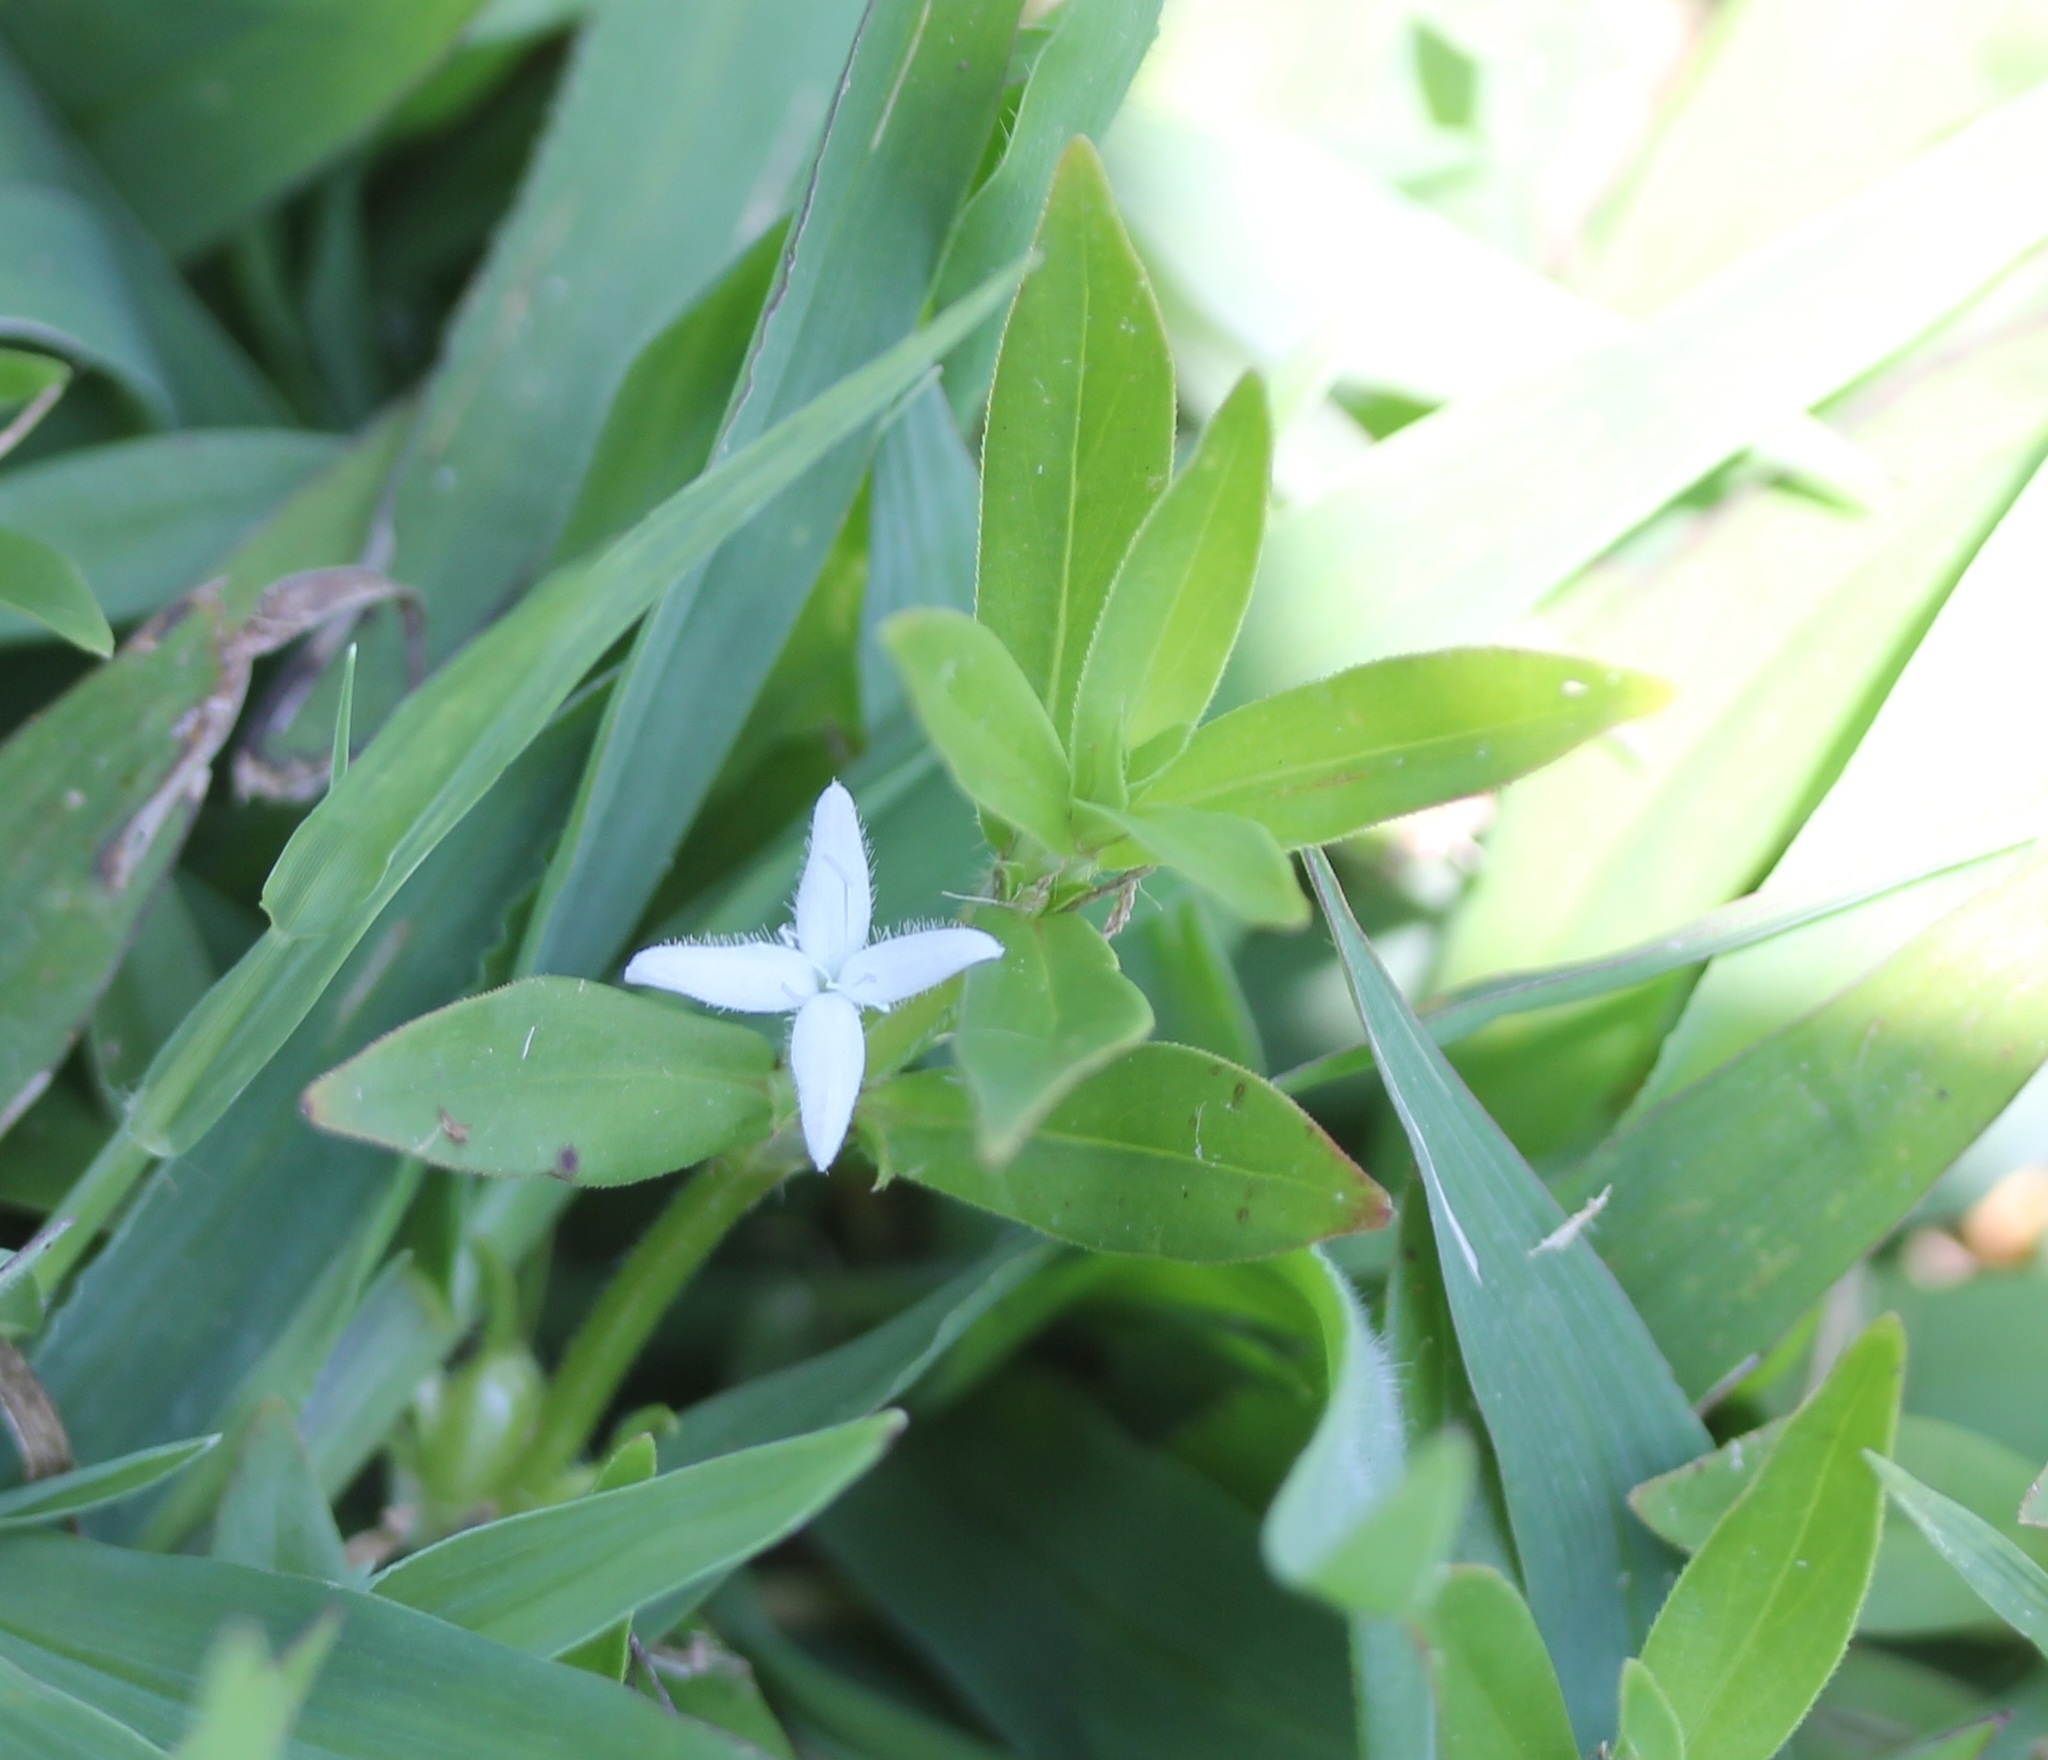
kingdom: Plantae
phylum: Tracheophyta
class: Magnoliopsida
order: Gentianales
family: Rubiaceae
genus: Diodia
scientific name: Diodia virginiana
